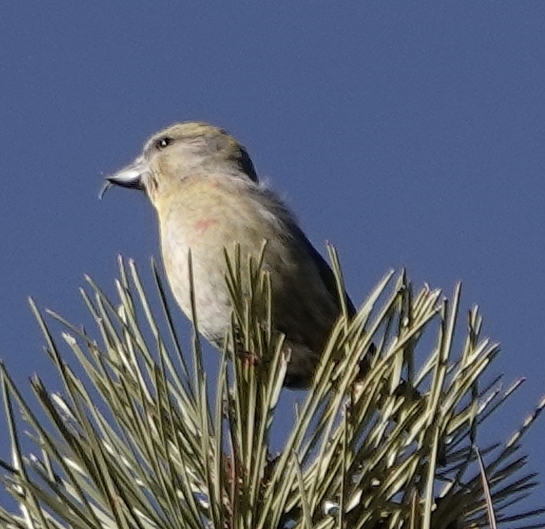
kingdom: Animalia
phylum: Chordata
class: Aves
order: Passeriformes
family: Fringillidae
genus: Loxia
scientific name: Loxia curvirostra
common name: Red crossbill
